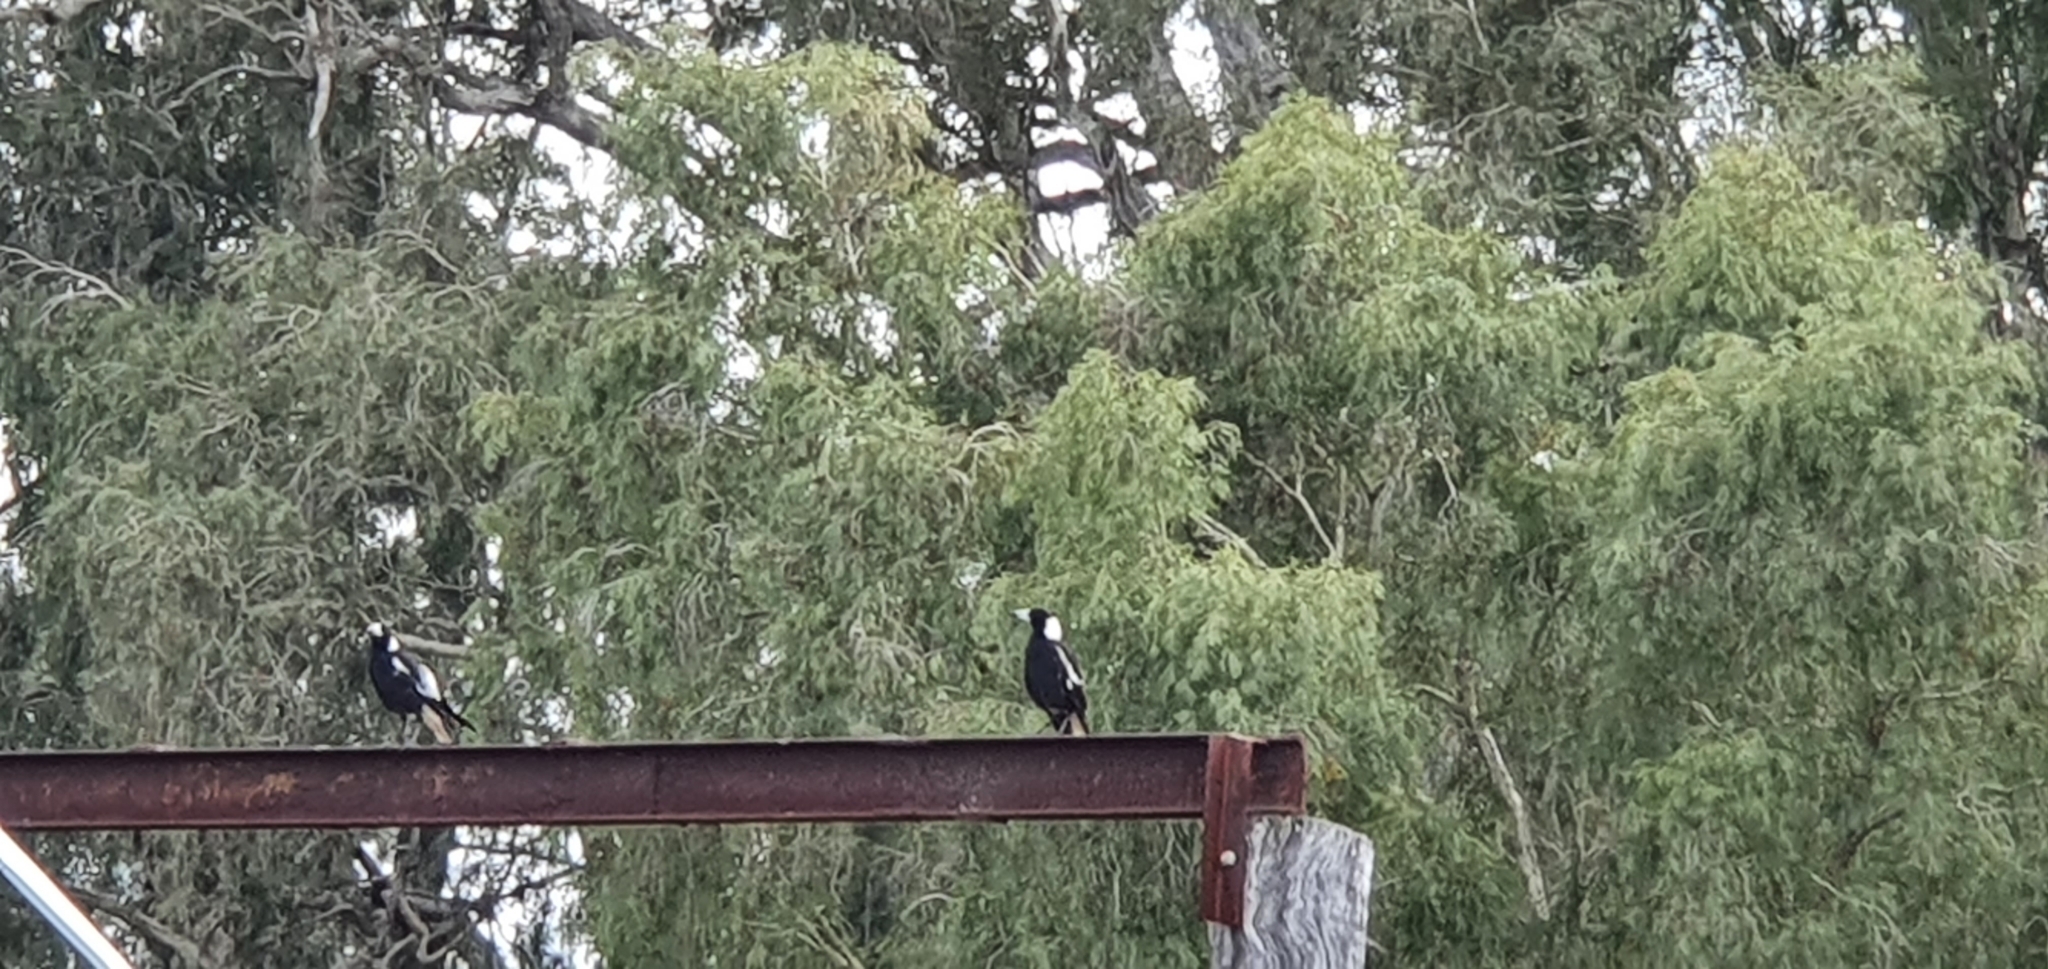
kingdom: Animalia
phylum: Chordata
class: Aves
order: Passeriformes
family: Cracticidae
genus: Gymnorhina
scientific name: Gymnorhina tibicen
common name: Australian magpie
